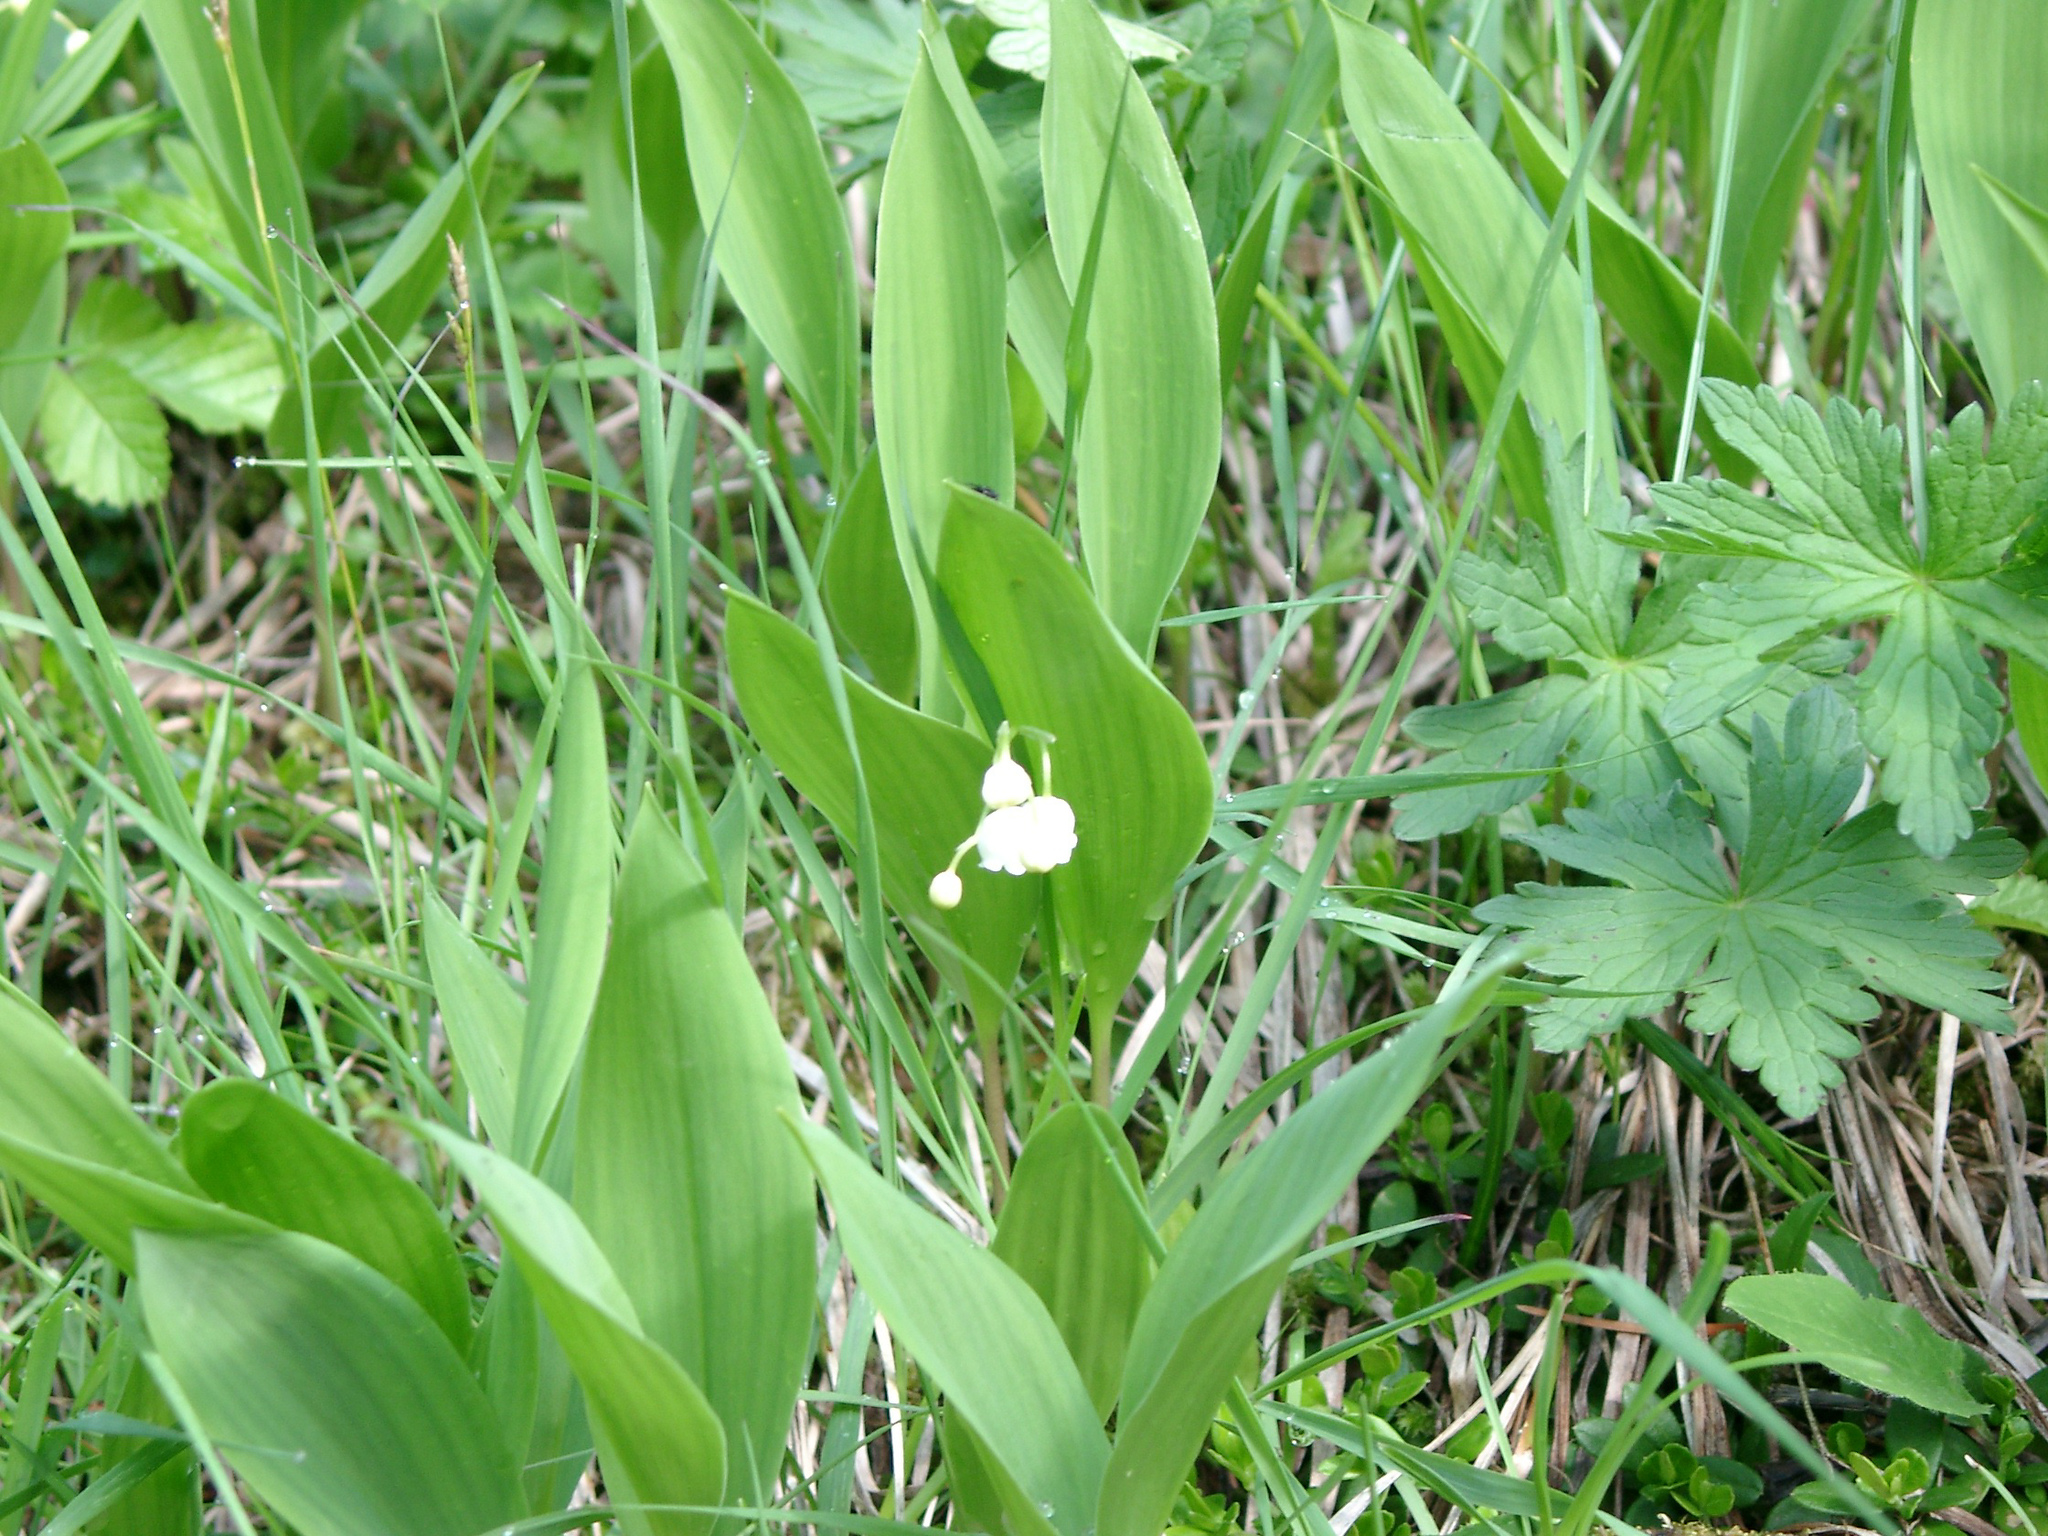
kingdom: Plantae
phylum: Tracheophyta
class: Liliopsida
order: Asparagales
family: Asparagaceae
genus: Convallaria
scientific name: Convallaria majalis
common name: Lily-of-the-valley
